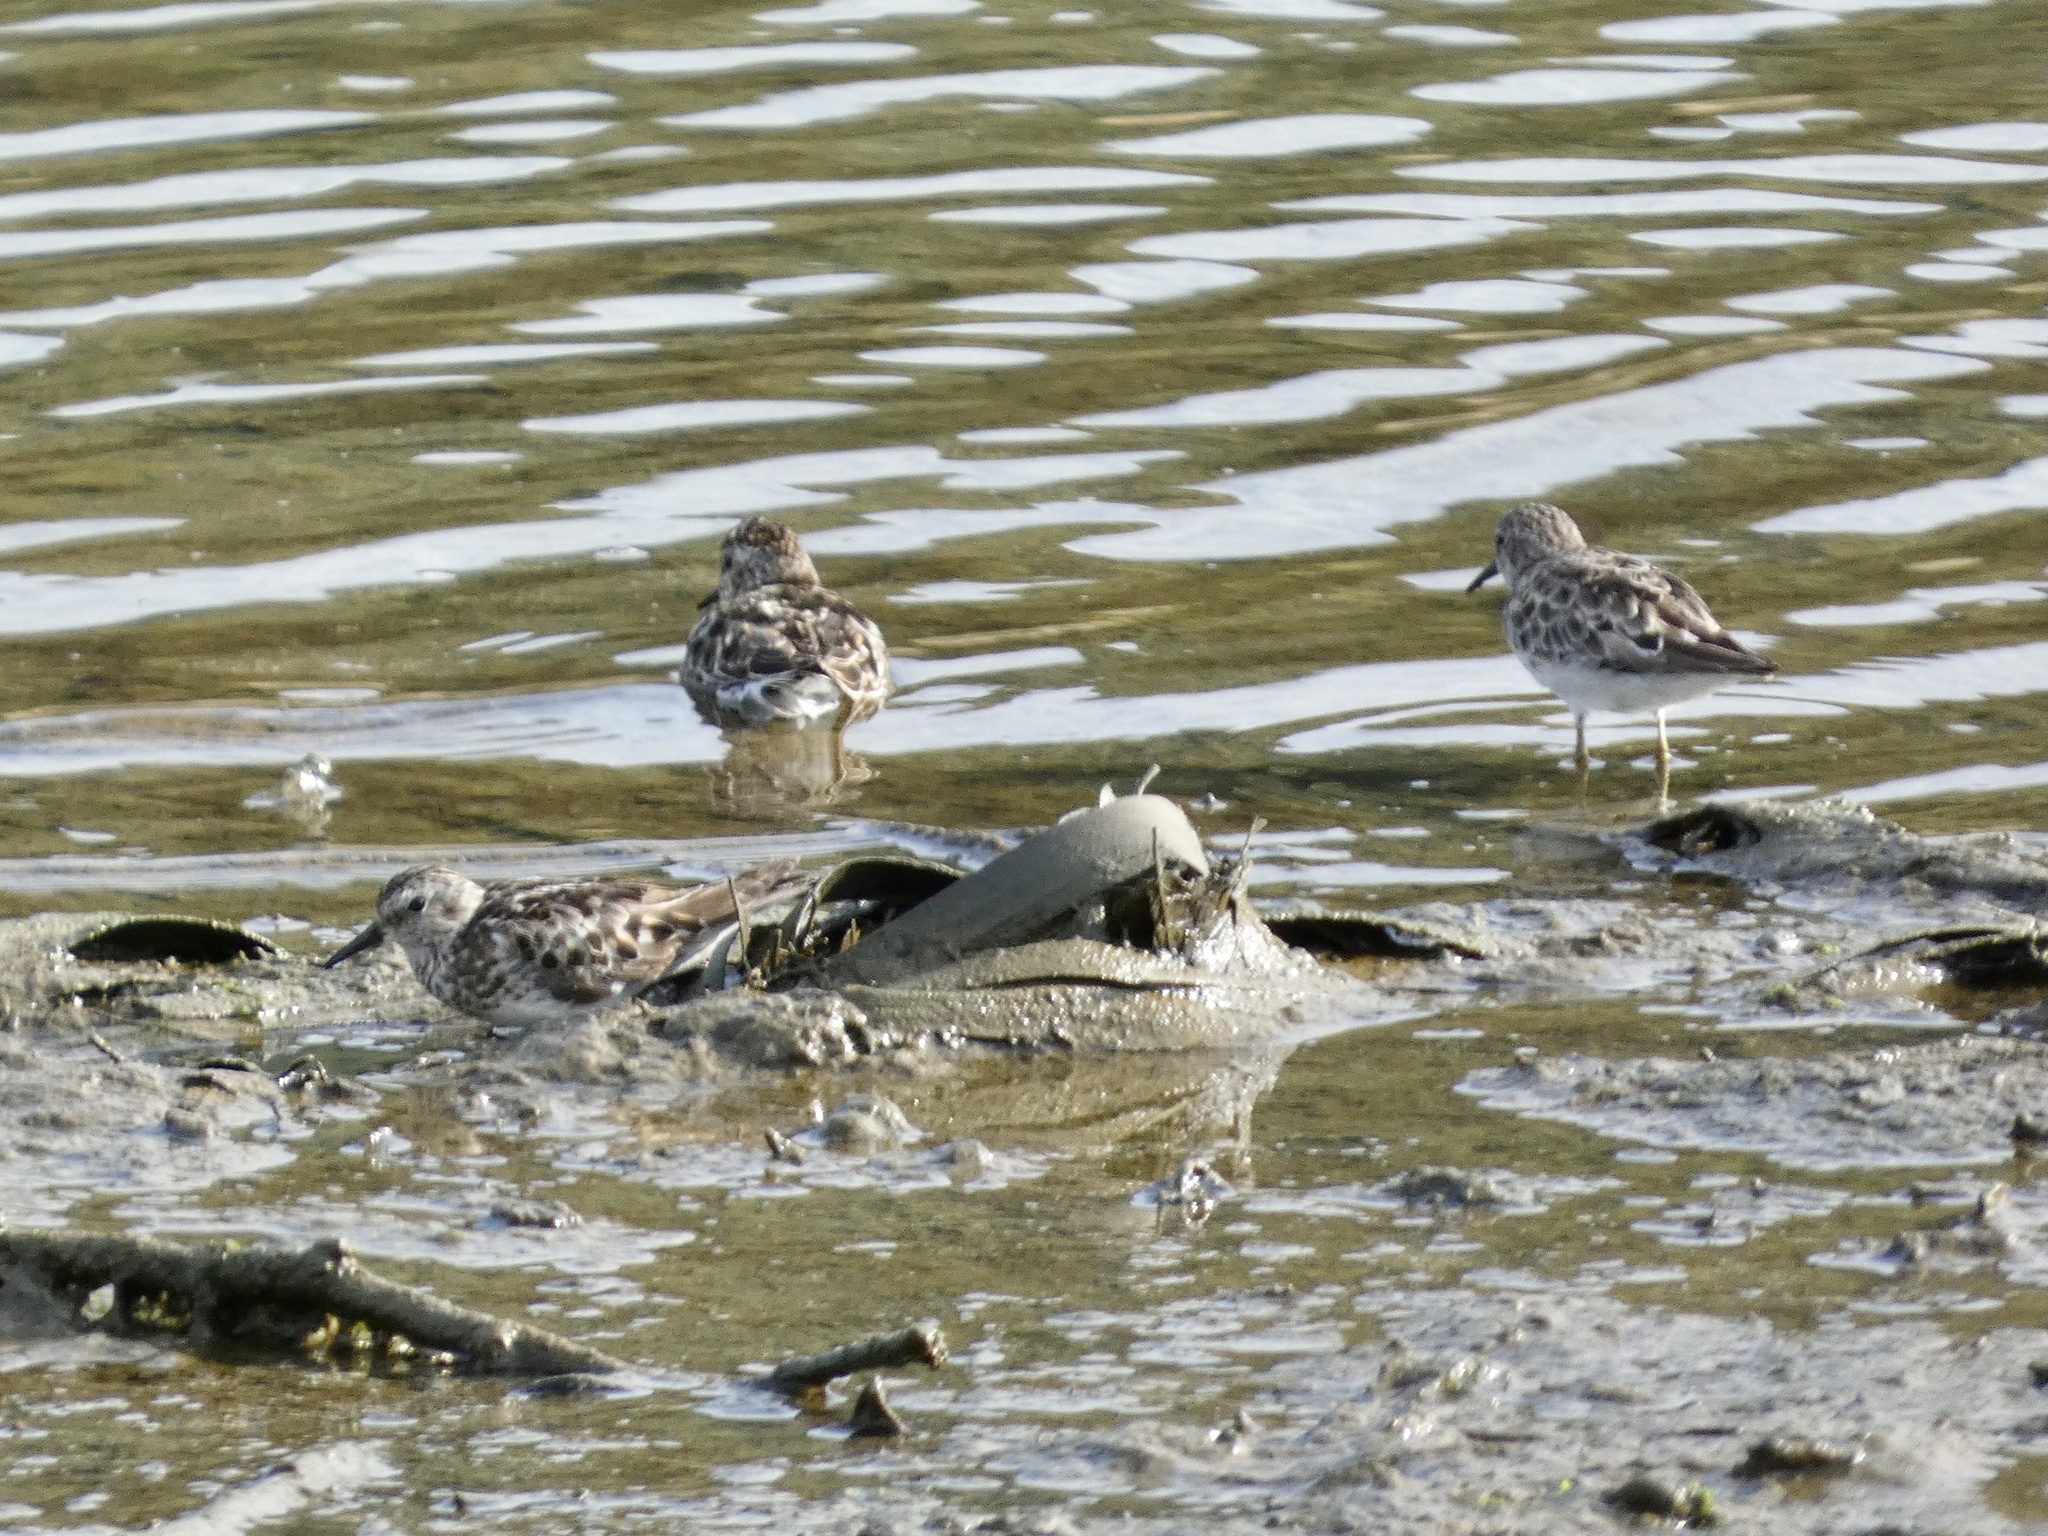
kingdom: Animalia
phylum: Chordata
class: Aves
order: Charadriiformes
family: Scolopacidae
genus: Calidris
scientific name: Calidris minutilla
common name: Least sandpiper
